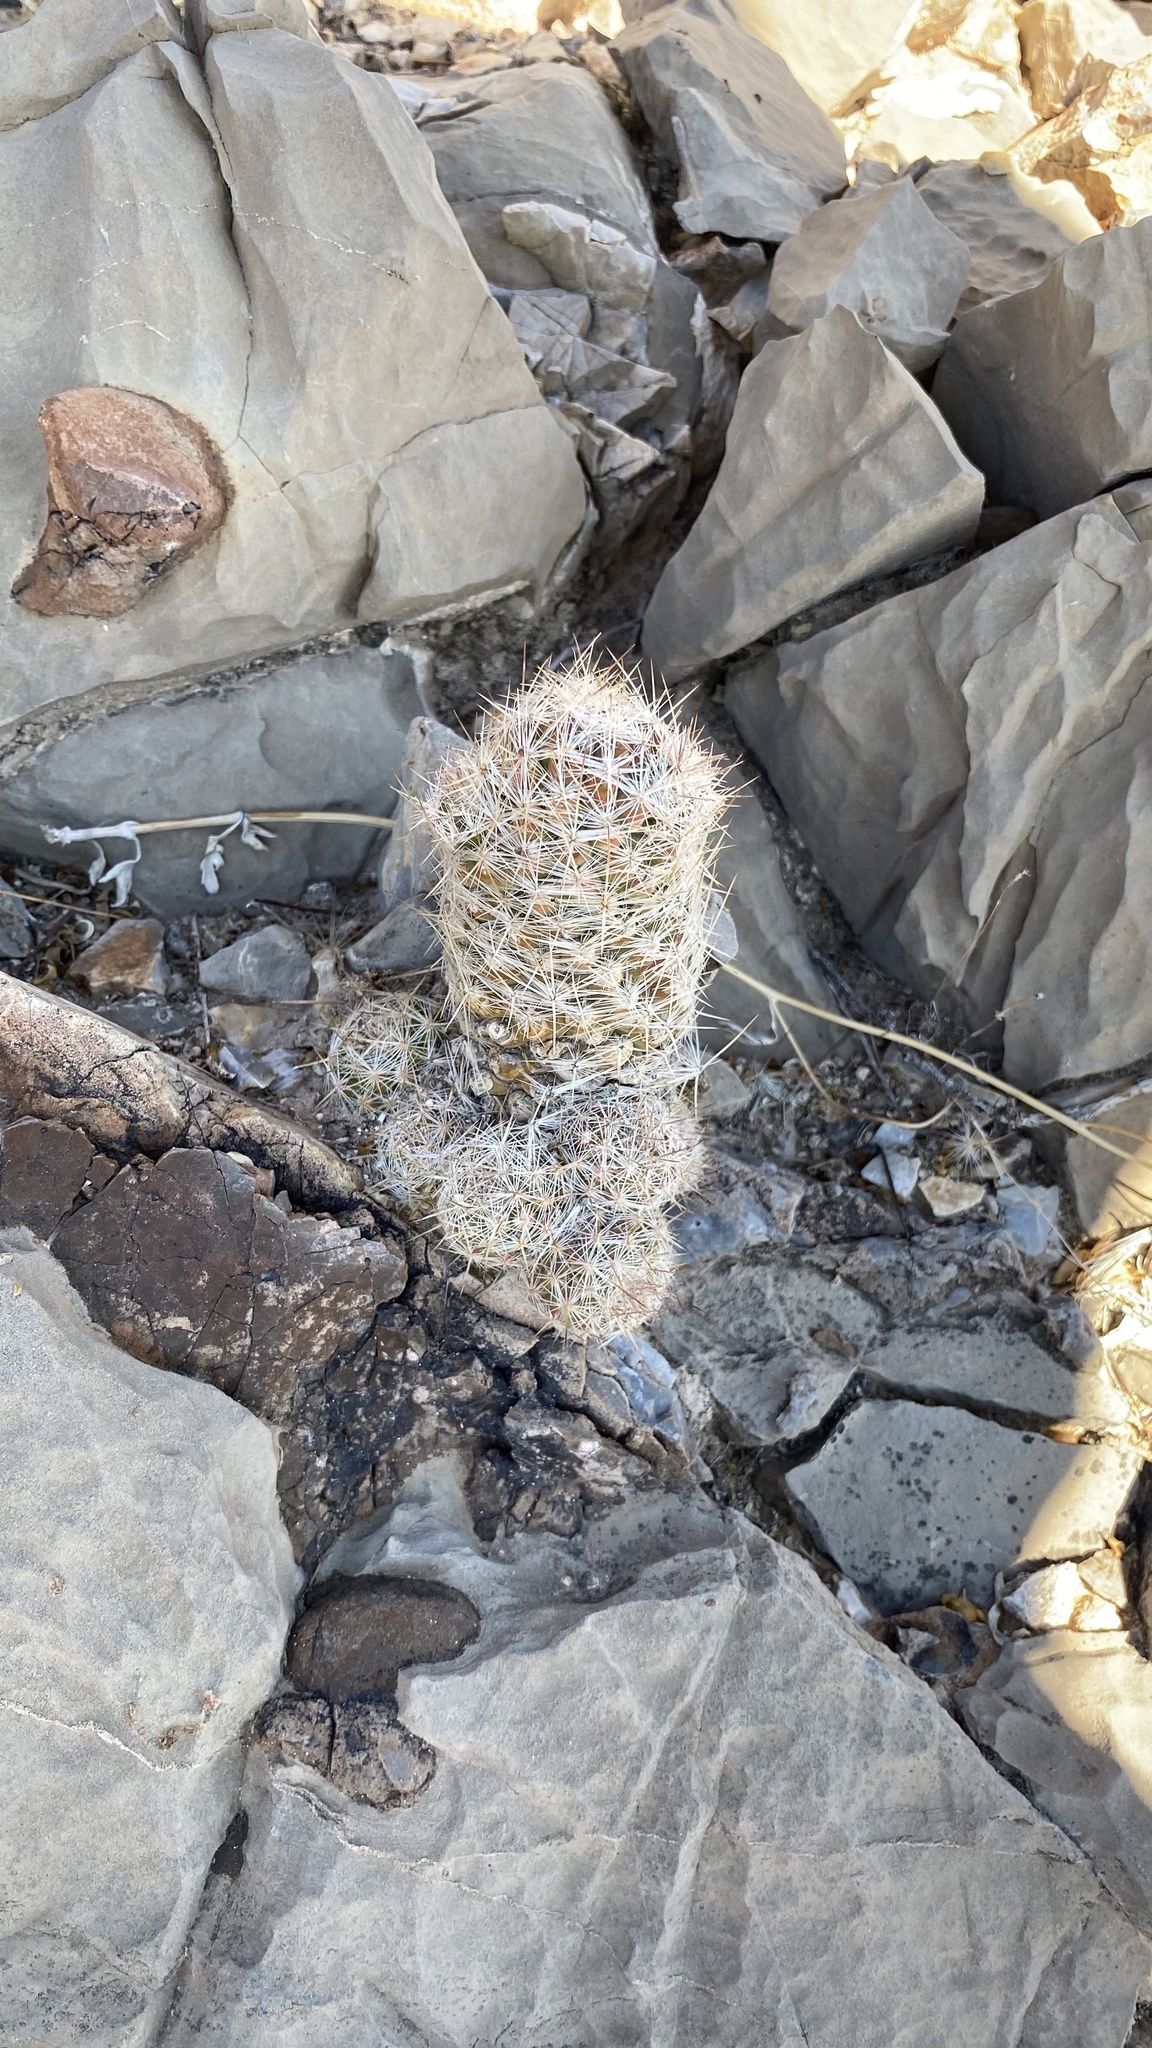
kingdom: Plantae
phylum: Tracheophyta
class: Magnoliopsida
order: Caryophyllales
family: Cactaceae
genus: Pelecyphora
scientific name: Pelecyphora tuberculosa
